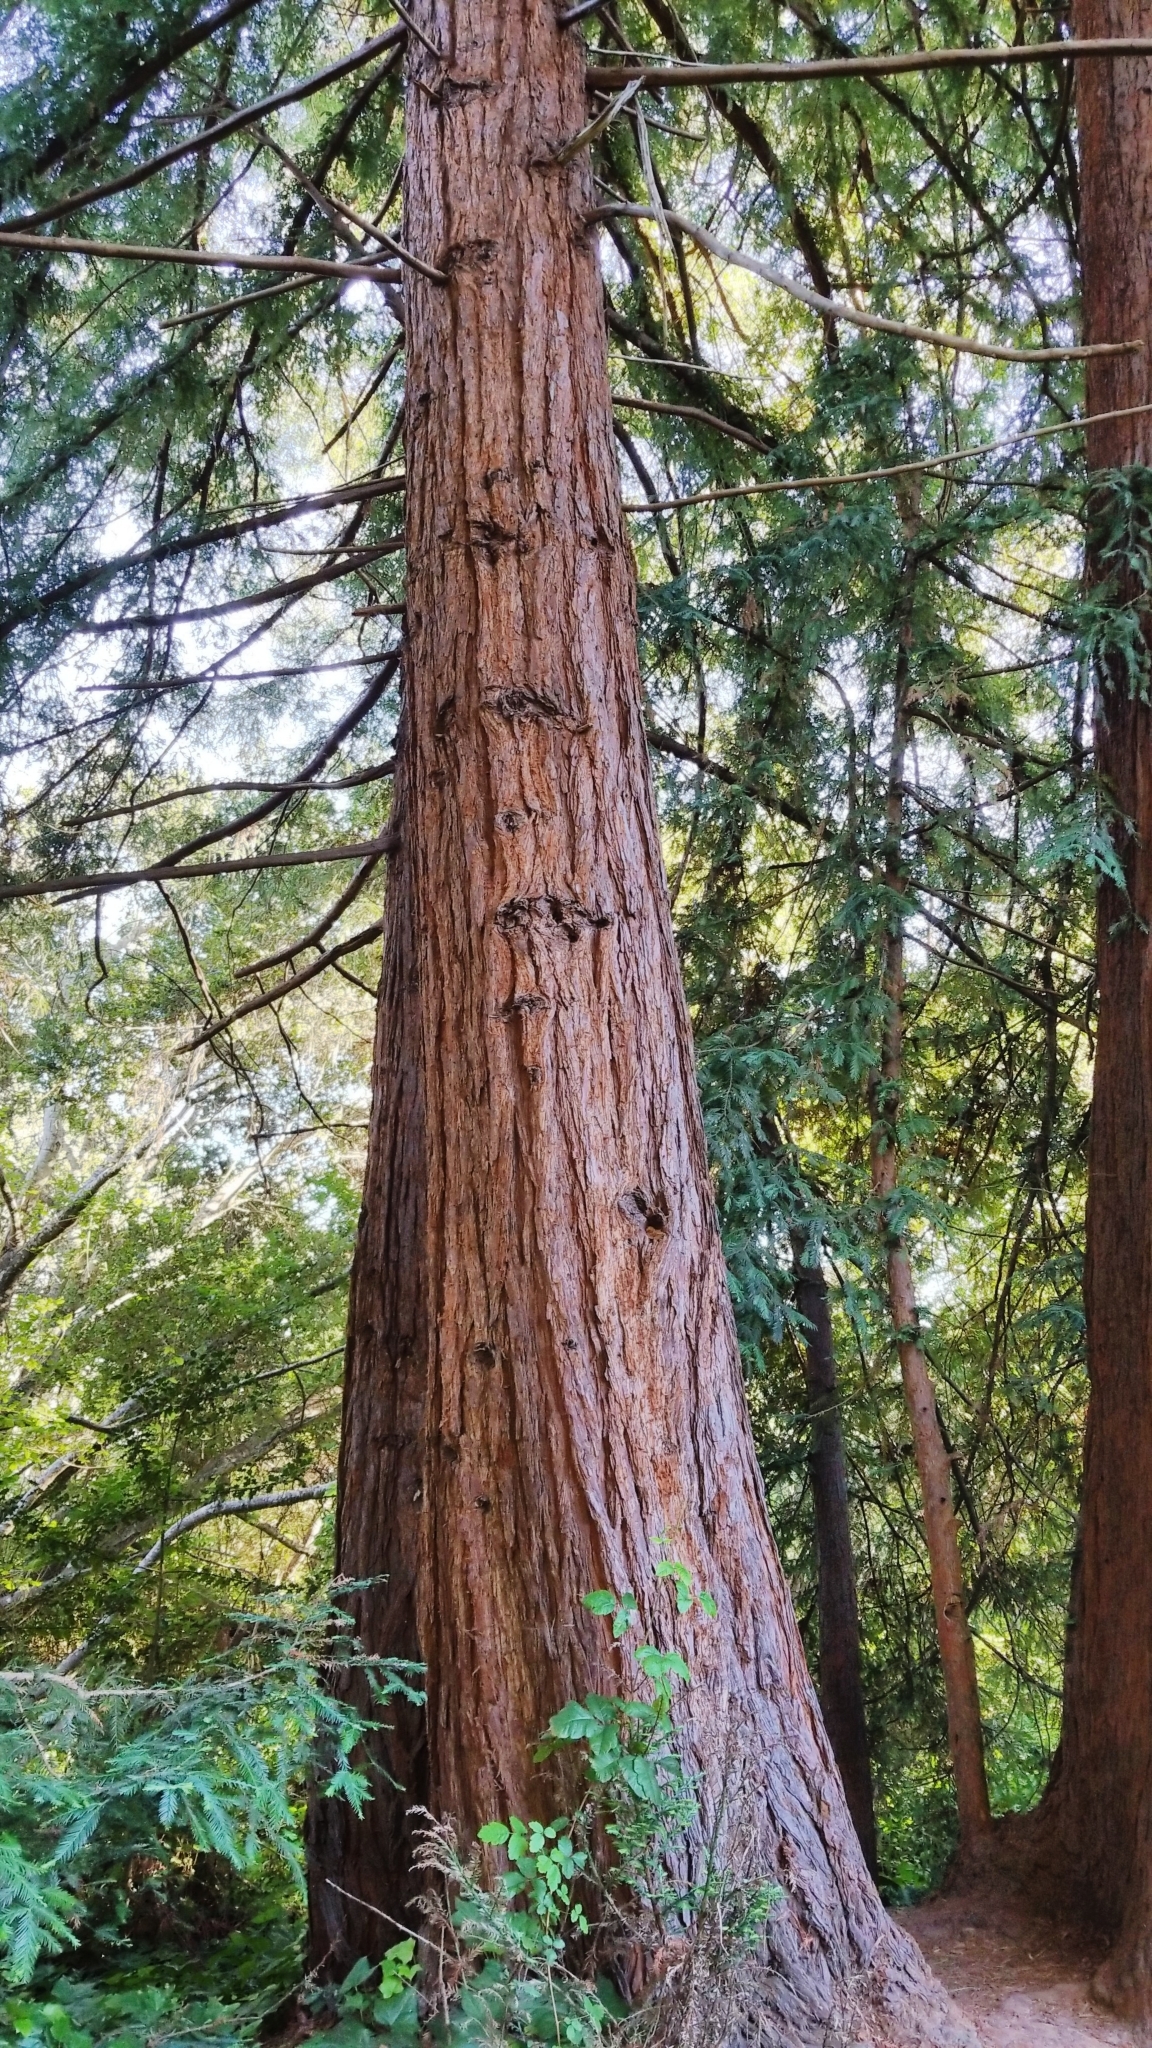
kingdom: Plantae
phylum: Tracheophyta
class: Pinopsida
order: Pinales
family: Cupressaceae
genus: Sequoia
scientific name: Sequoia sempervirens
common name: Coast redwood
